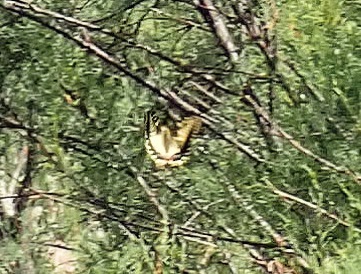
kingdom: Animalia
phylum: Arthropoda
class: Insecta
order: Lepidoptera
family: Papilionidae
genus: Papilio
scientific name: Papilio machaon
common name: Swallowtail
